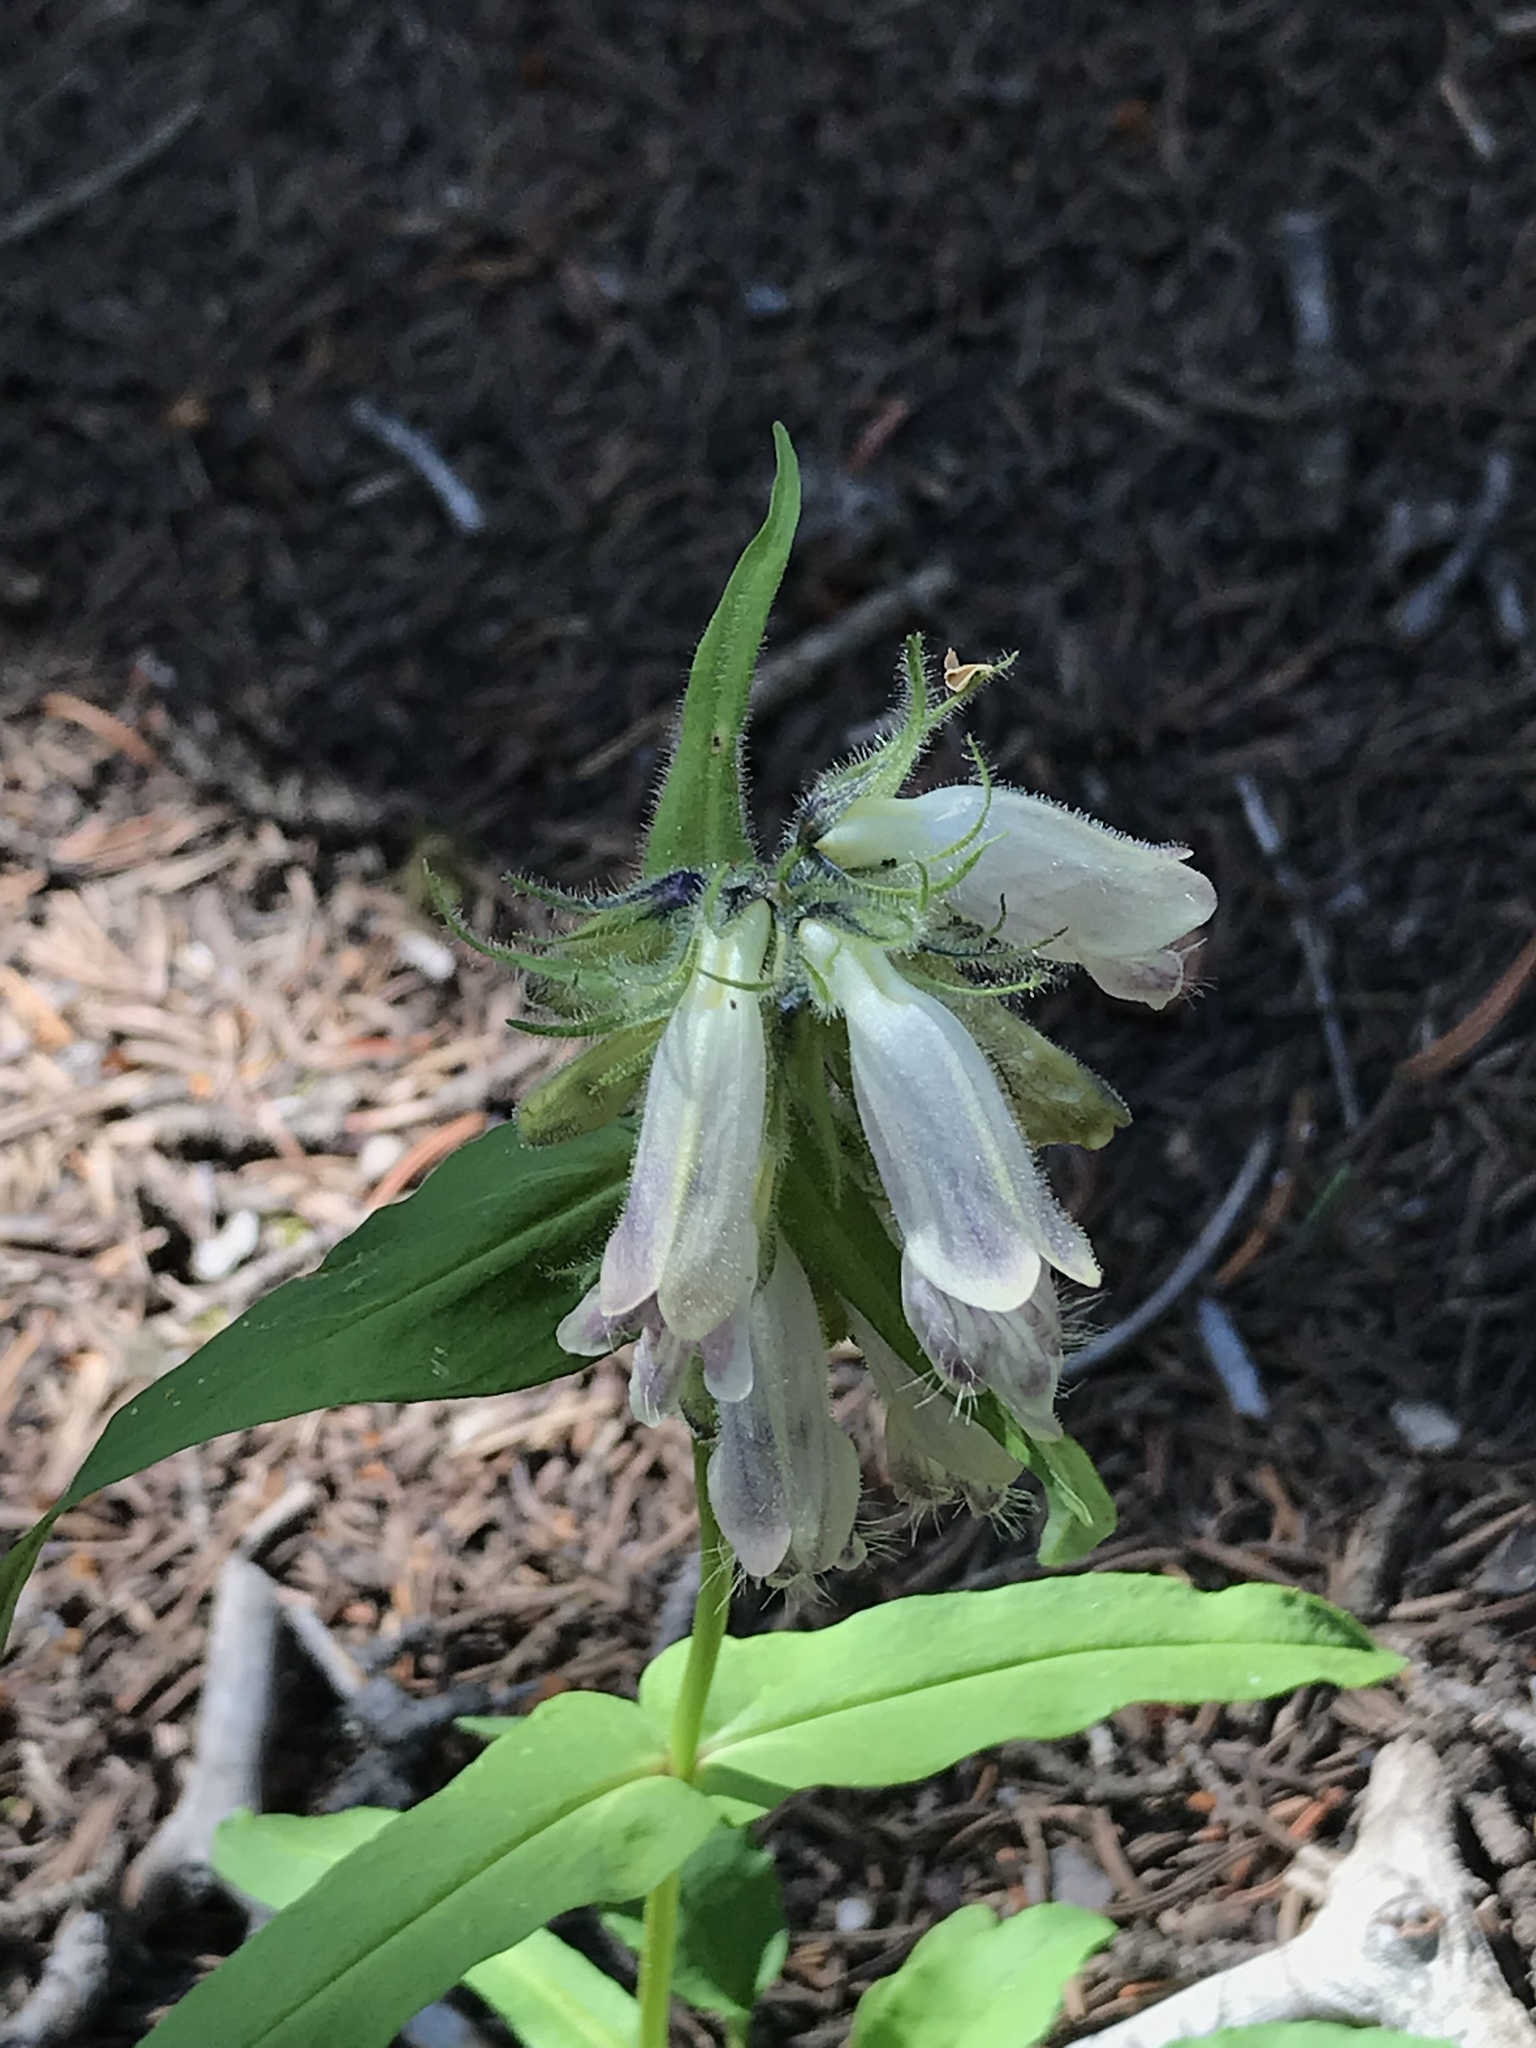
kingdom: Plantae
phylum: Tracheophyta
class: Magnoliopsida
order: Lamiales
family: Plantaginaceae
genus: Penstemon
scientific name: Penstemon whippleanus
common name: Whipple's penstemon
